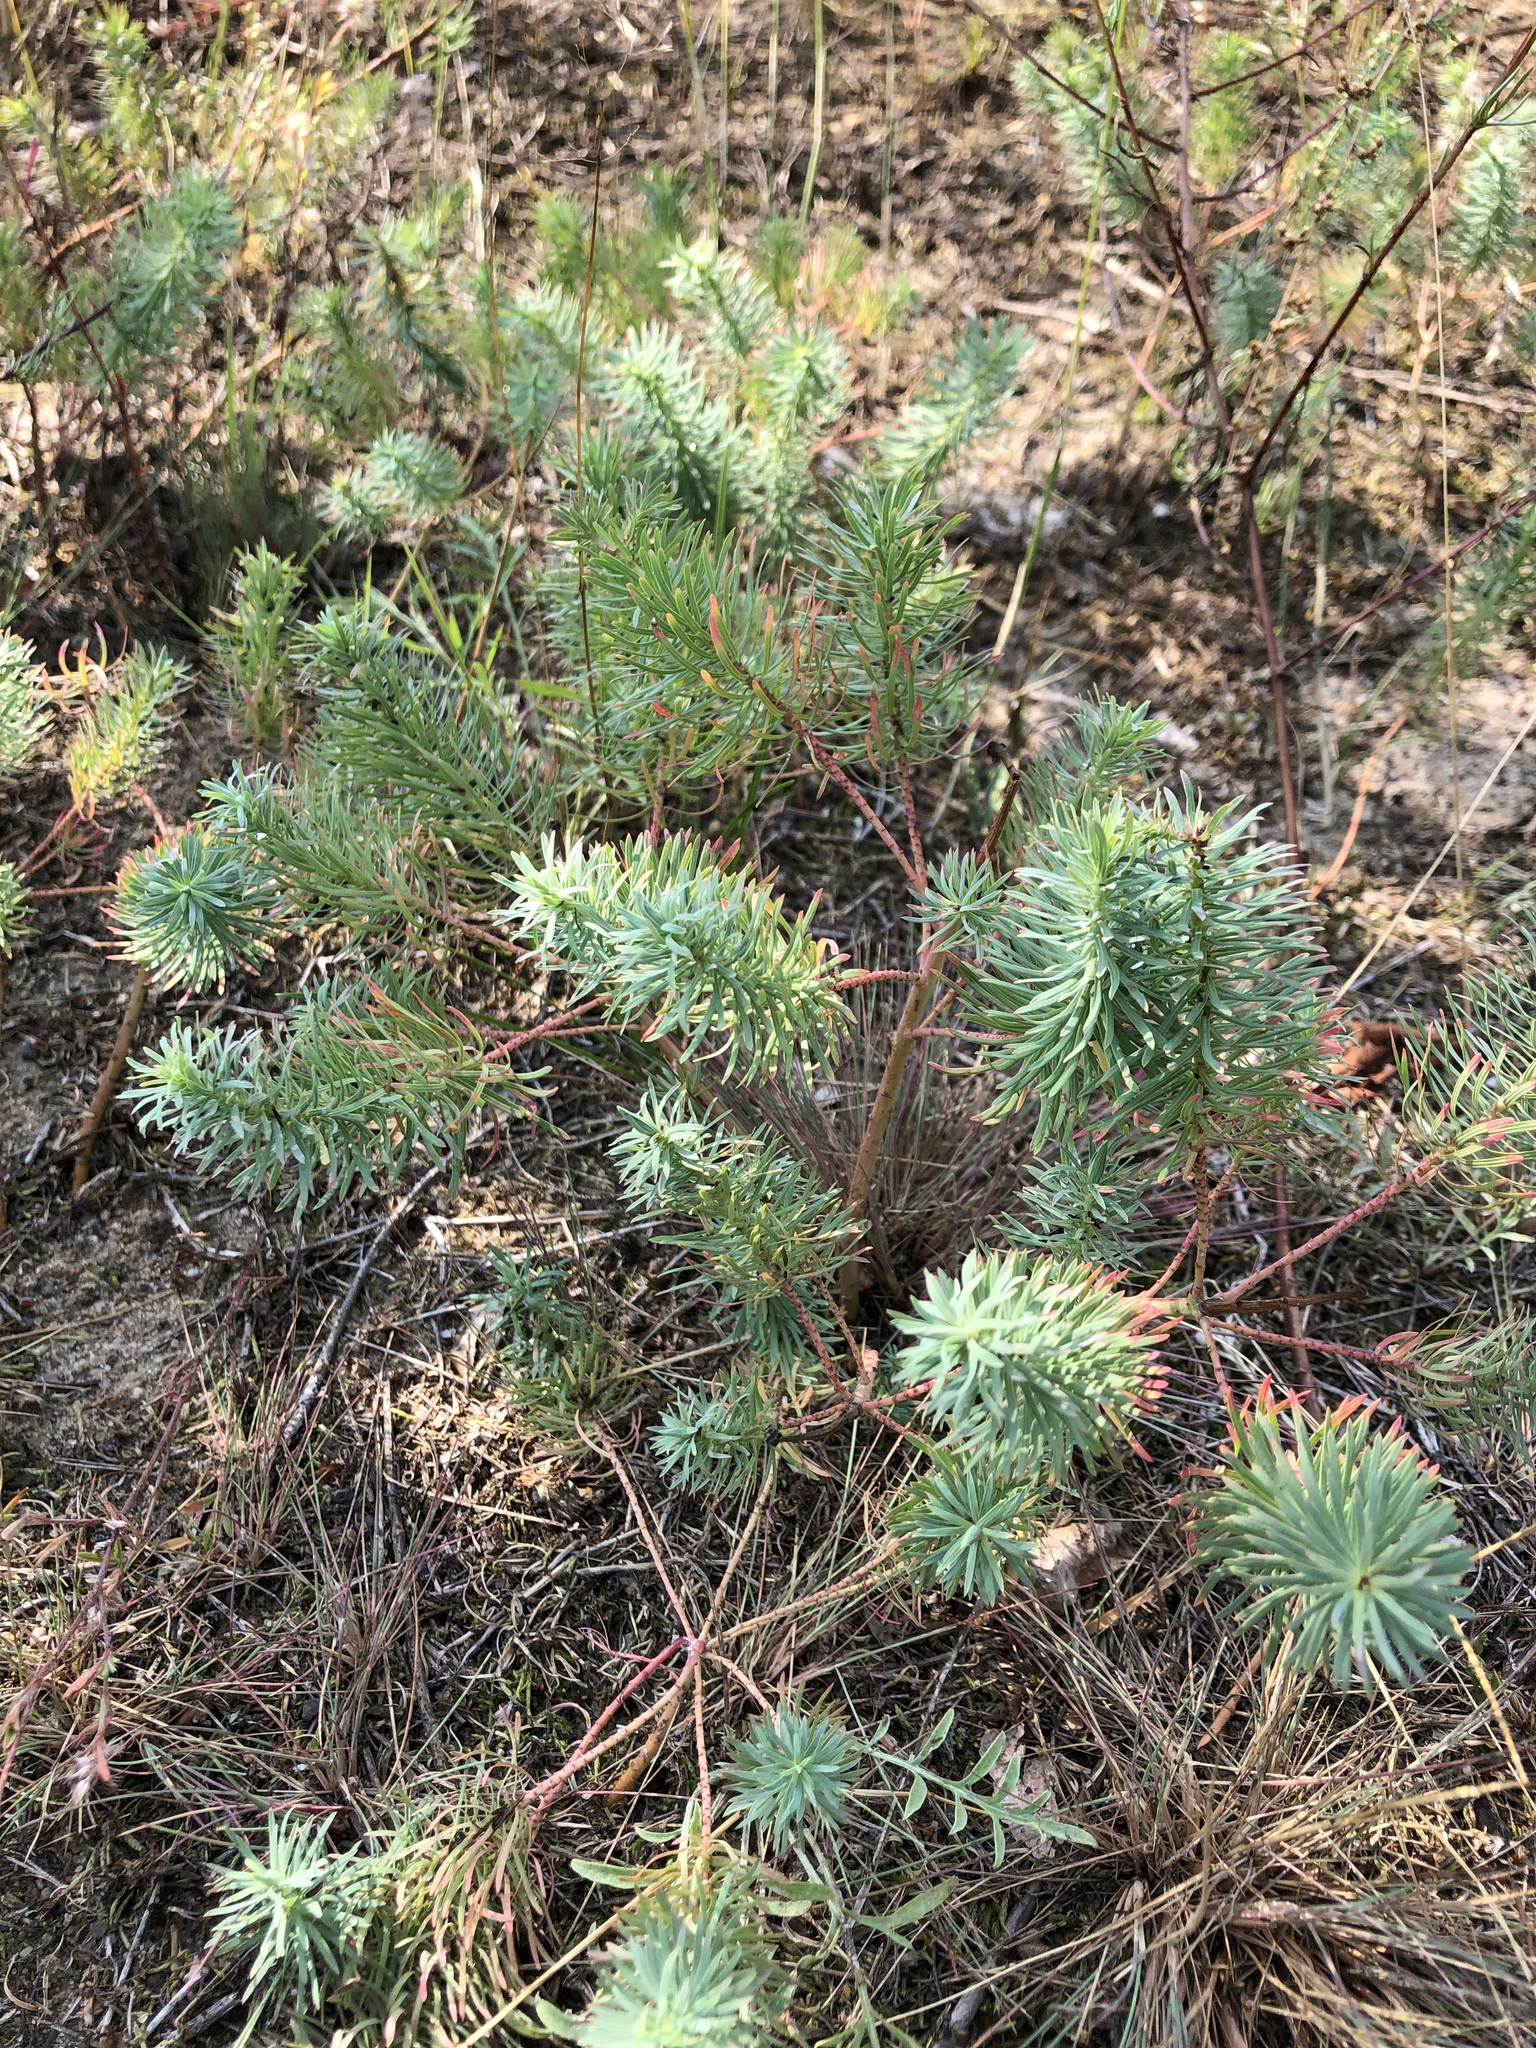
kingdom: Plantae
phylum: Tracheophyta
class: Magnoliopsida
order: Malpighiales
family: Euphorbiaceae
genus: Euphorbia
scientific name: Euphorbia cyparissias
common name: Cypress spurge
